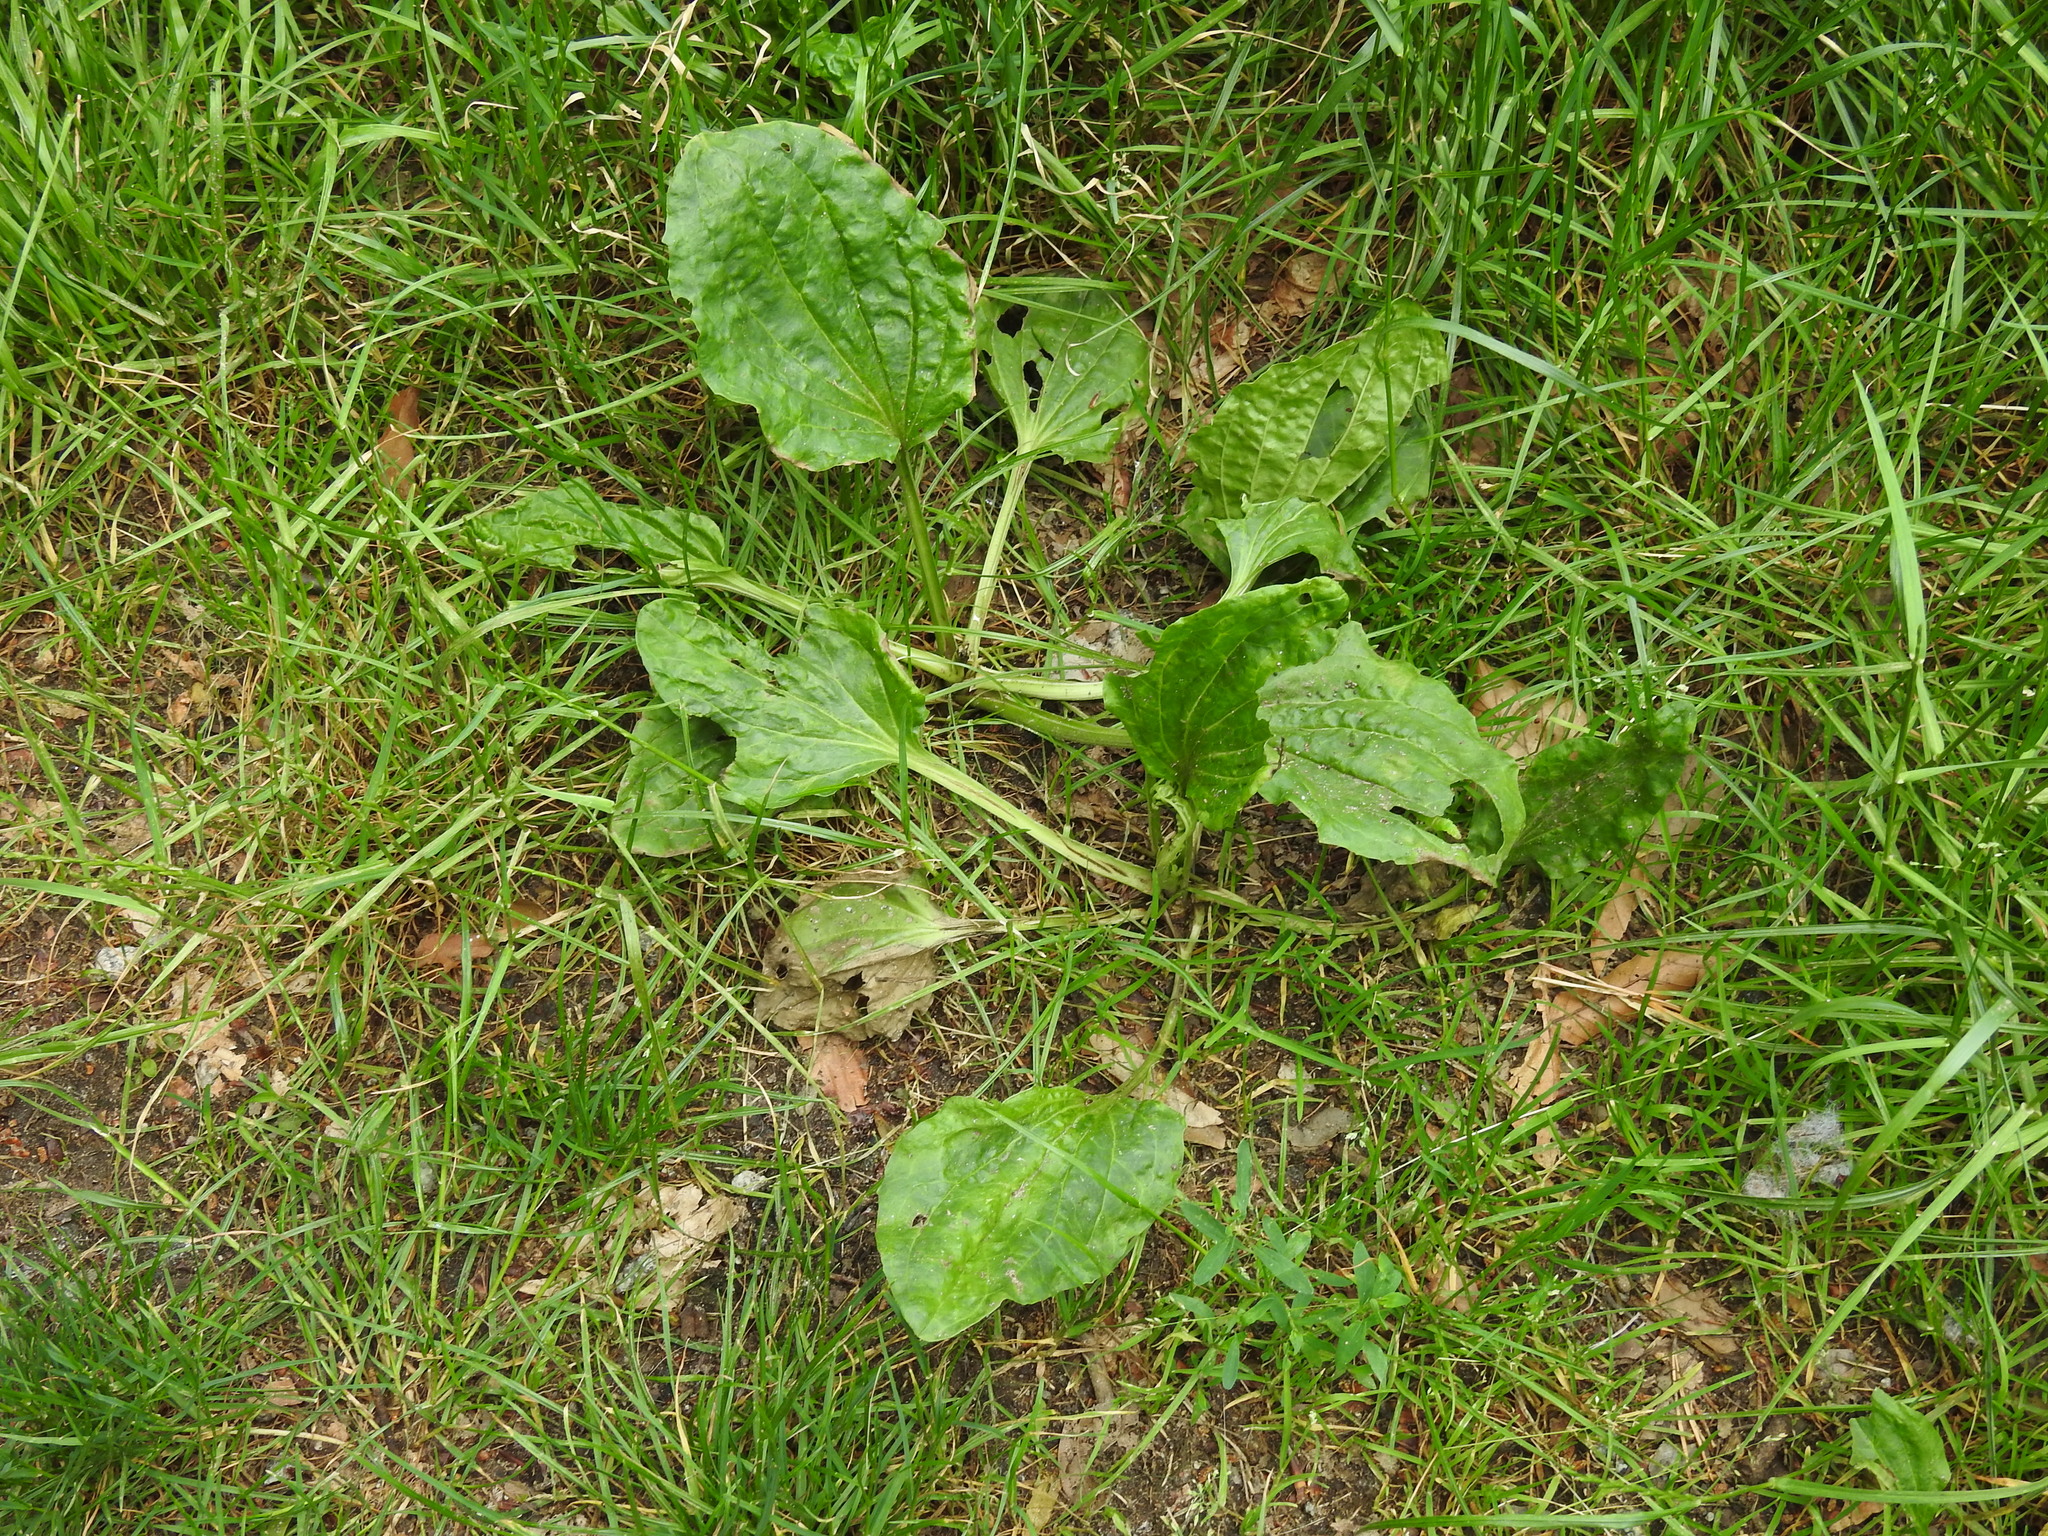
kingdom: Plantae
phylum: Tracheophyta
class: Magnoliopsida
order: Lamiales
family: Plantaginaceae
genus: Plantago
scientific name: Plantago major
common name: Common plantain
